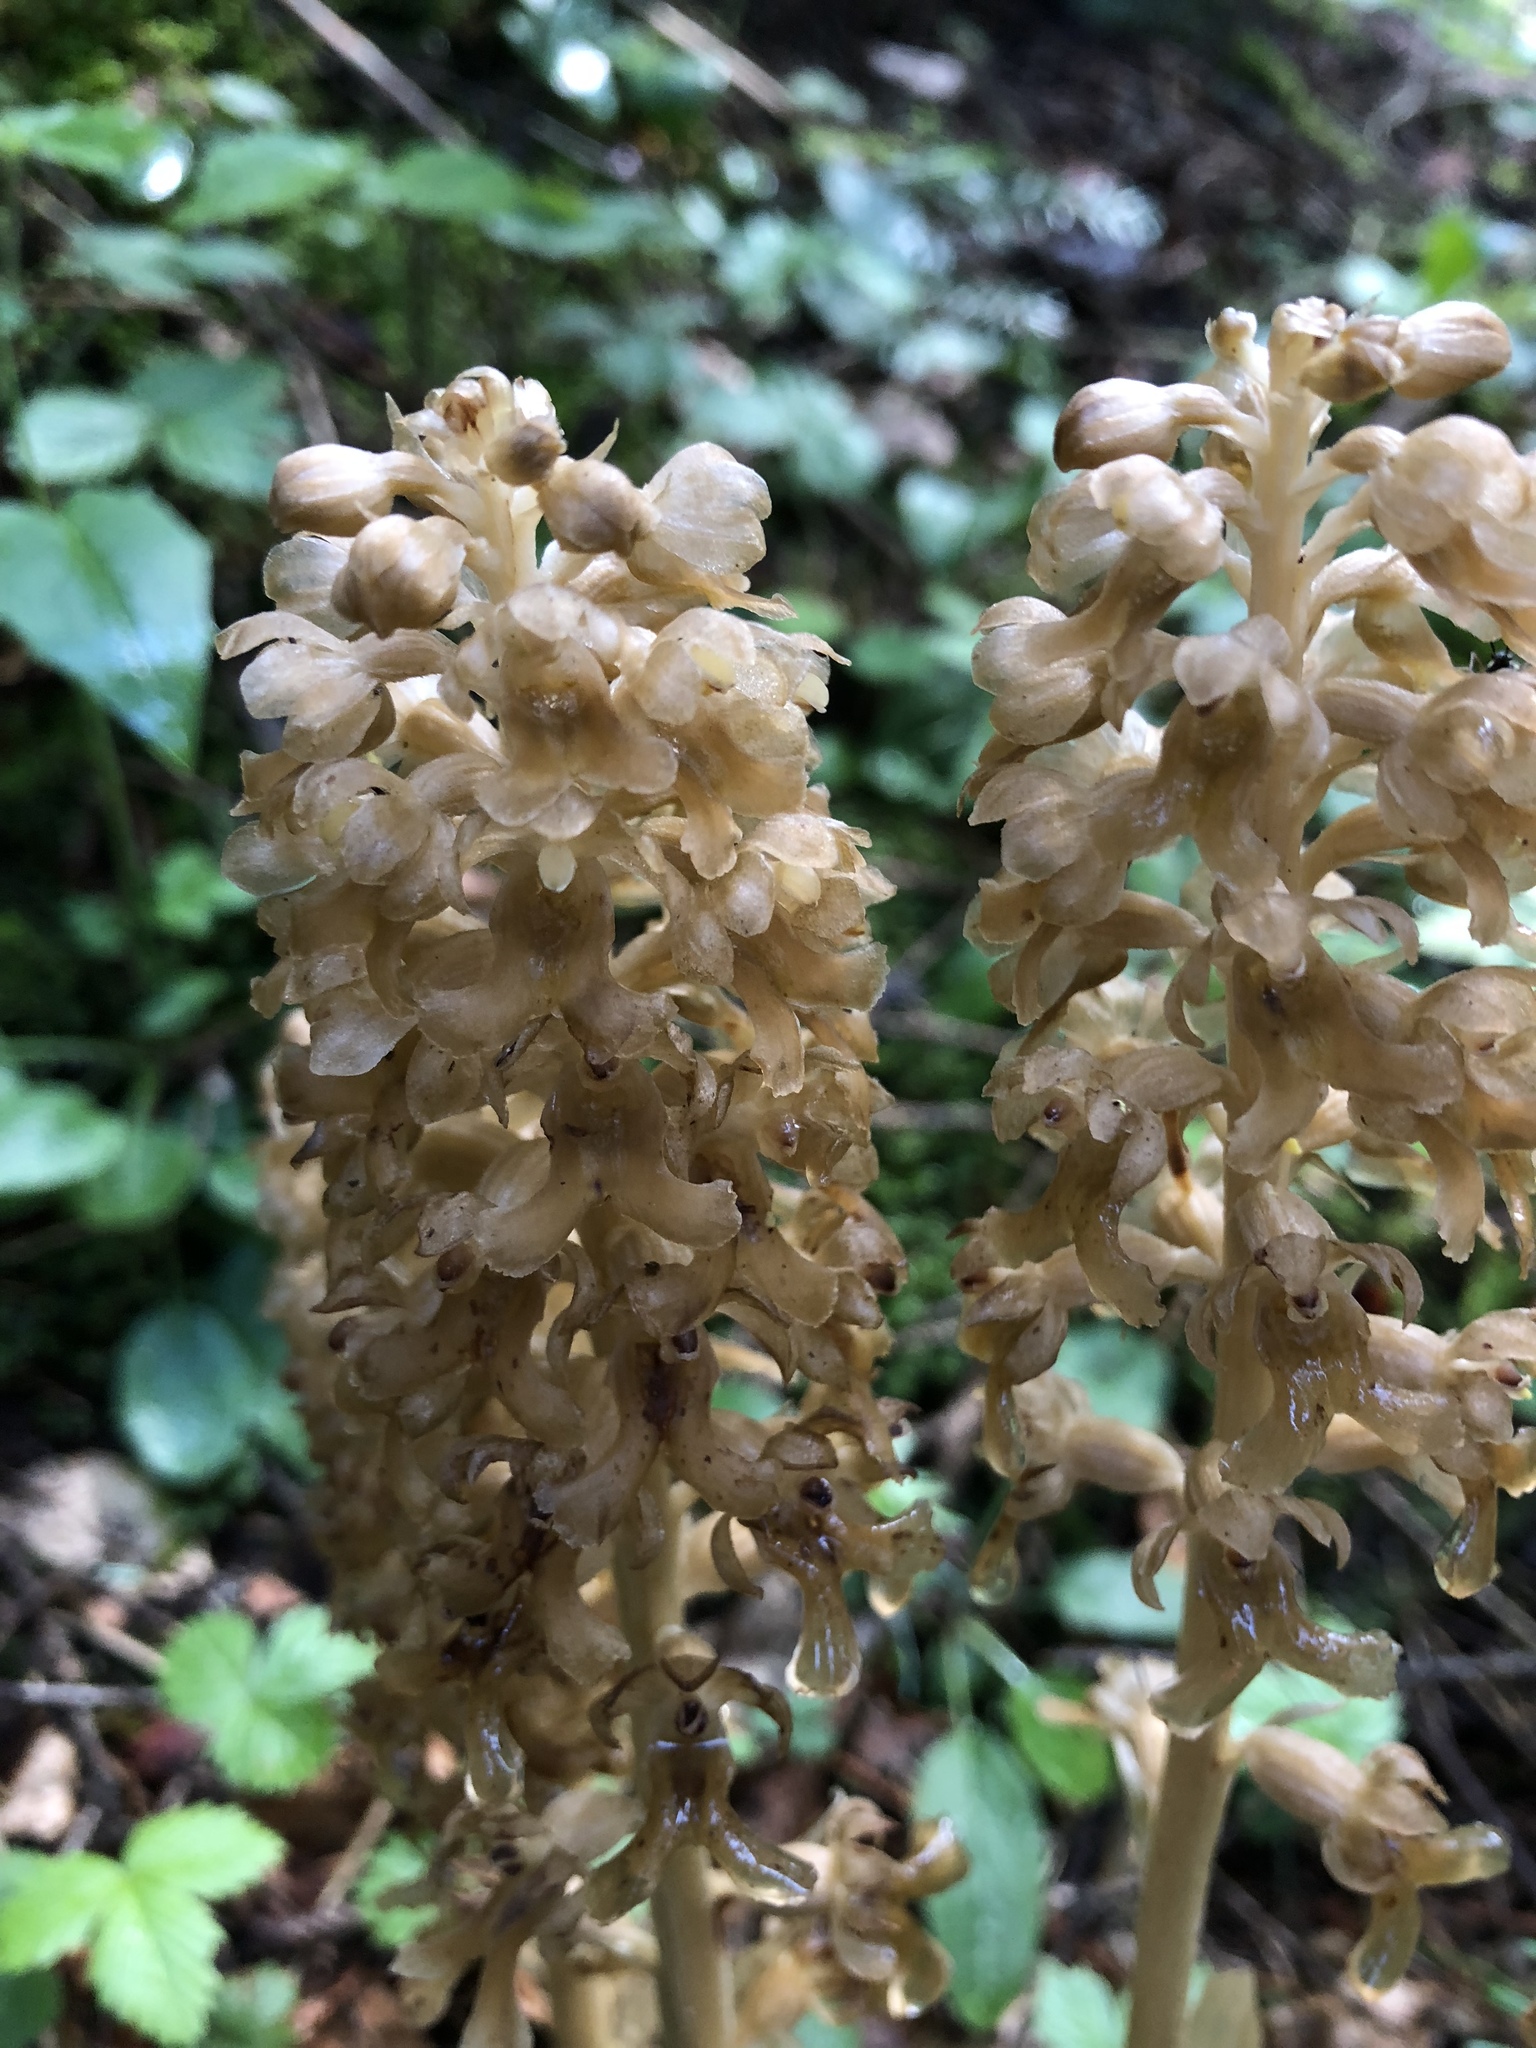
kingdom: Plantae
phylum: Tracheophyta
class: Liliopsida
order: Asparagales
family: Orchidaceae
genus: Neottia
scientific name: Neottia nidus-avis
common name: Bird's-nest orchid
